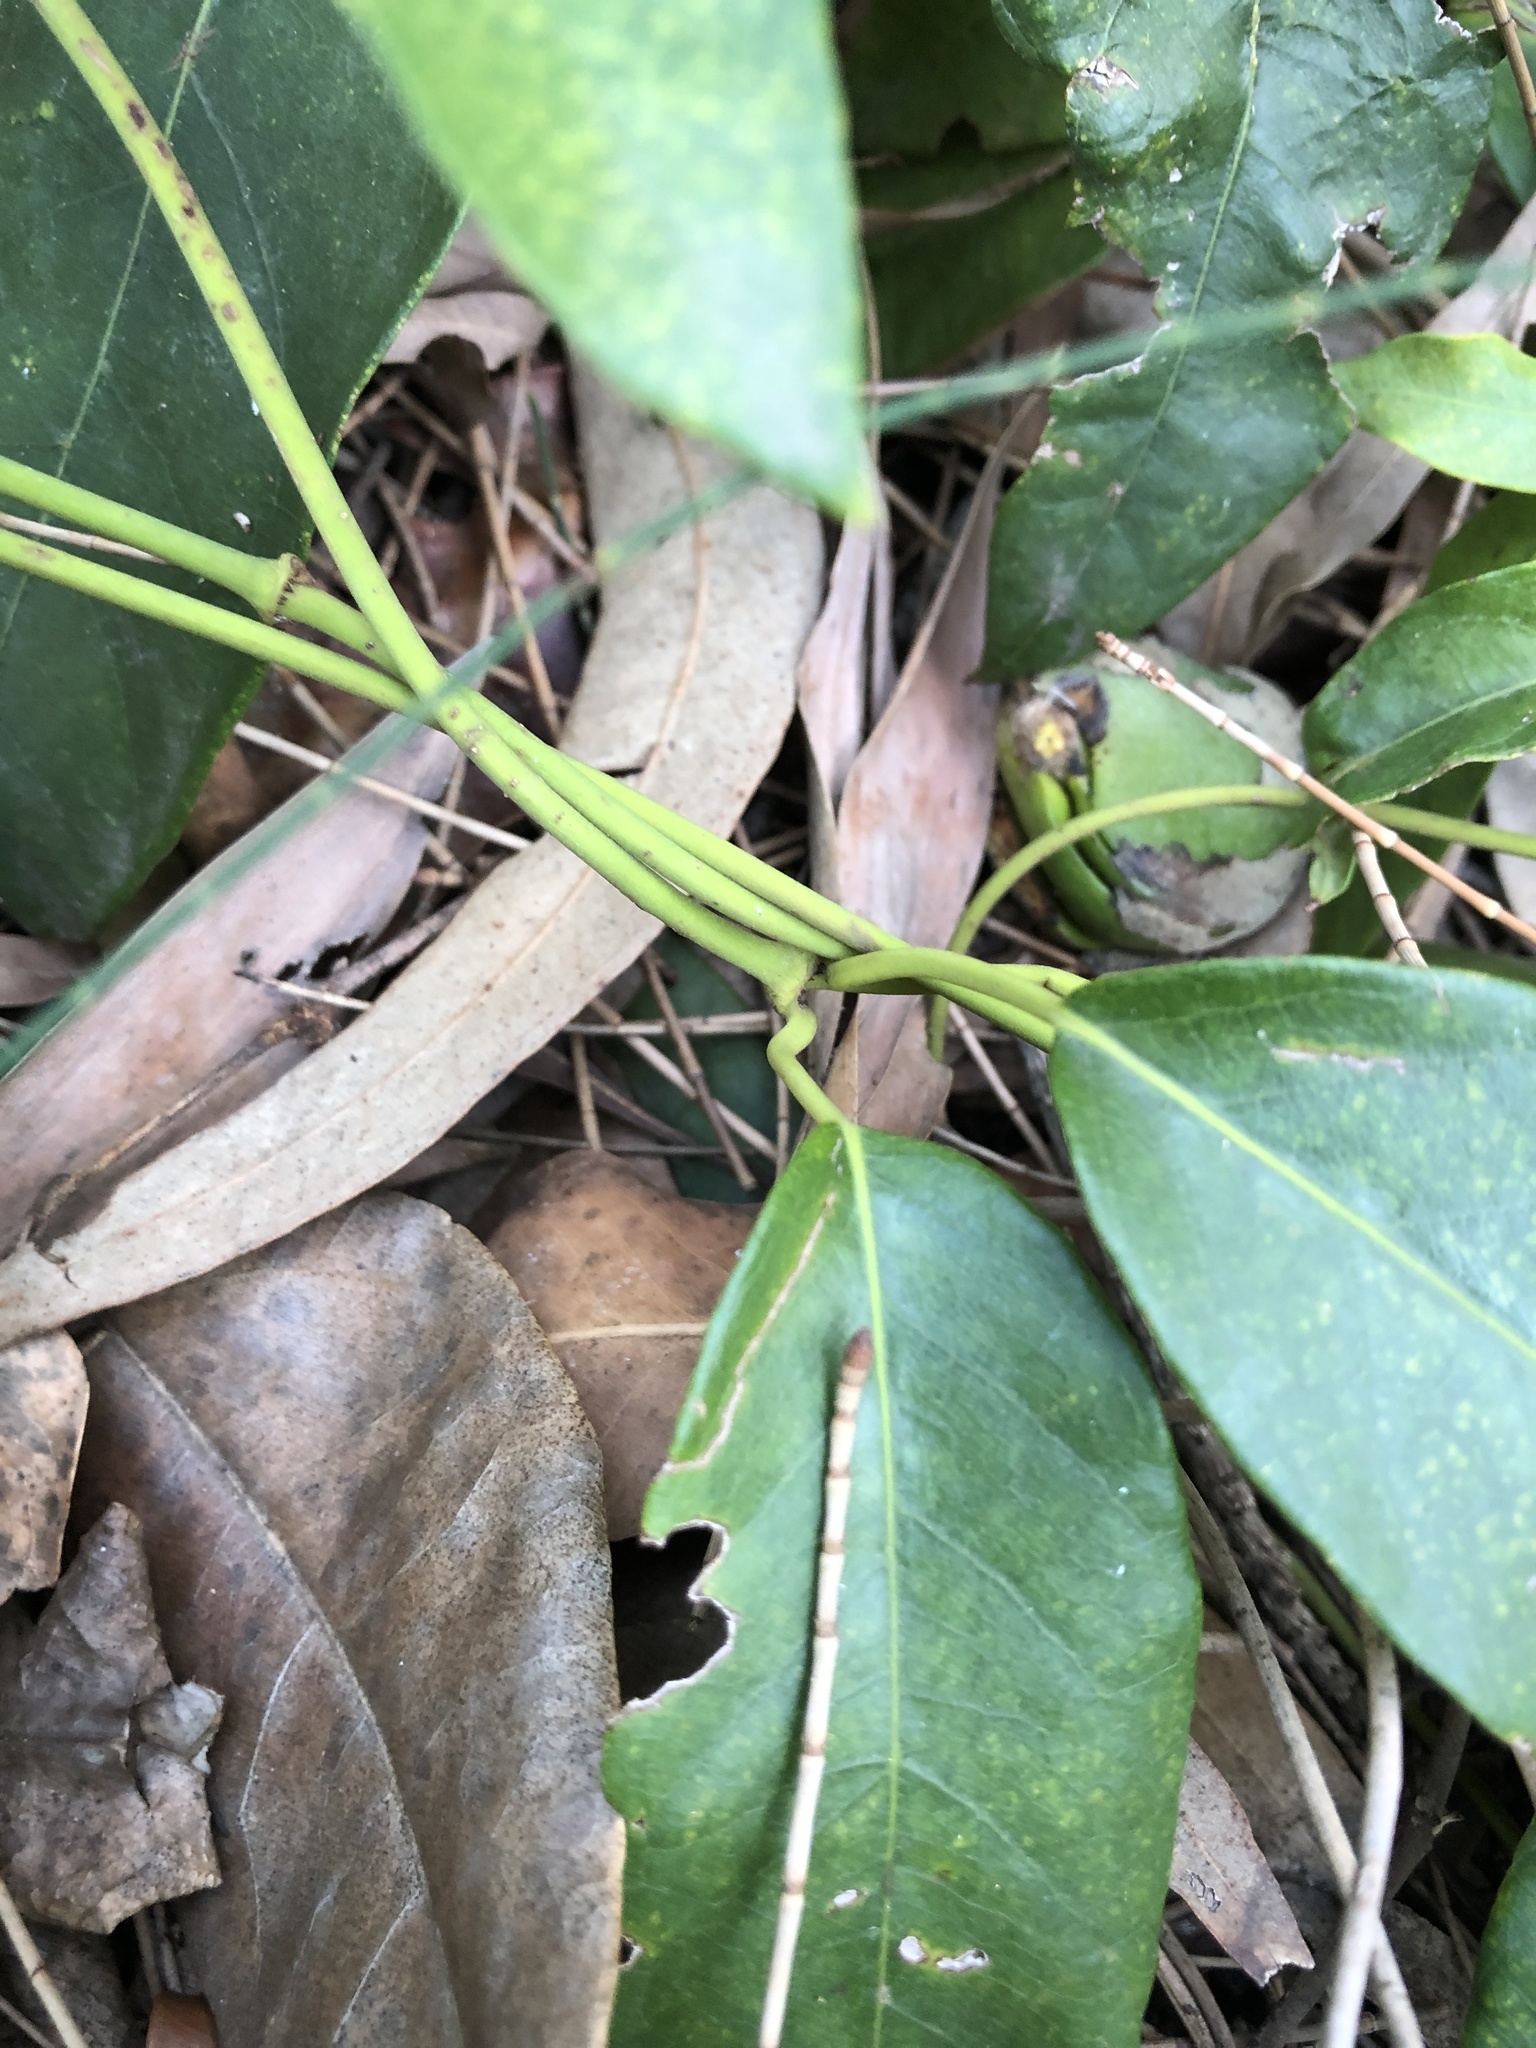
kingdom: Plantae
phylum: Tracheophyta
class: Magnoliopsida
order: Gentianales
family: Apocynaceae
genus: Parsonsia
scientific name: Parsonsia straminea
